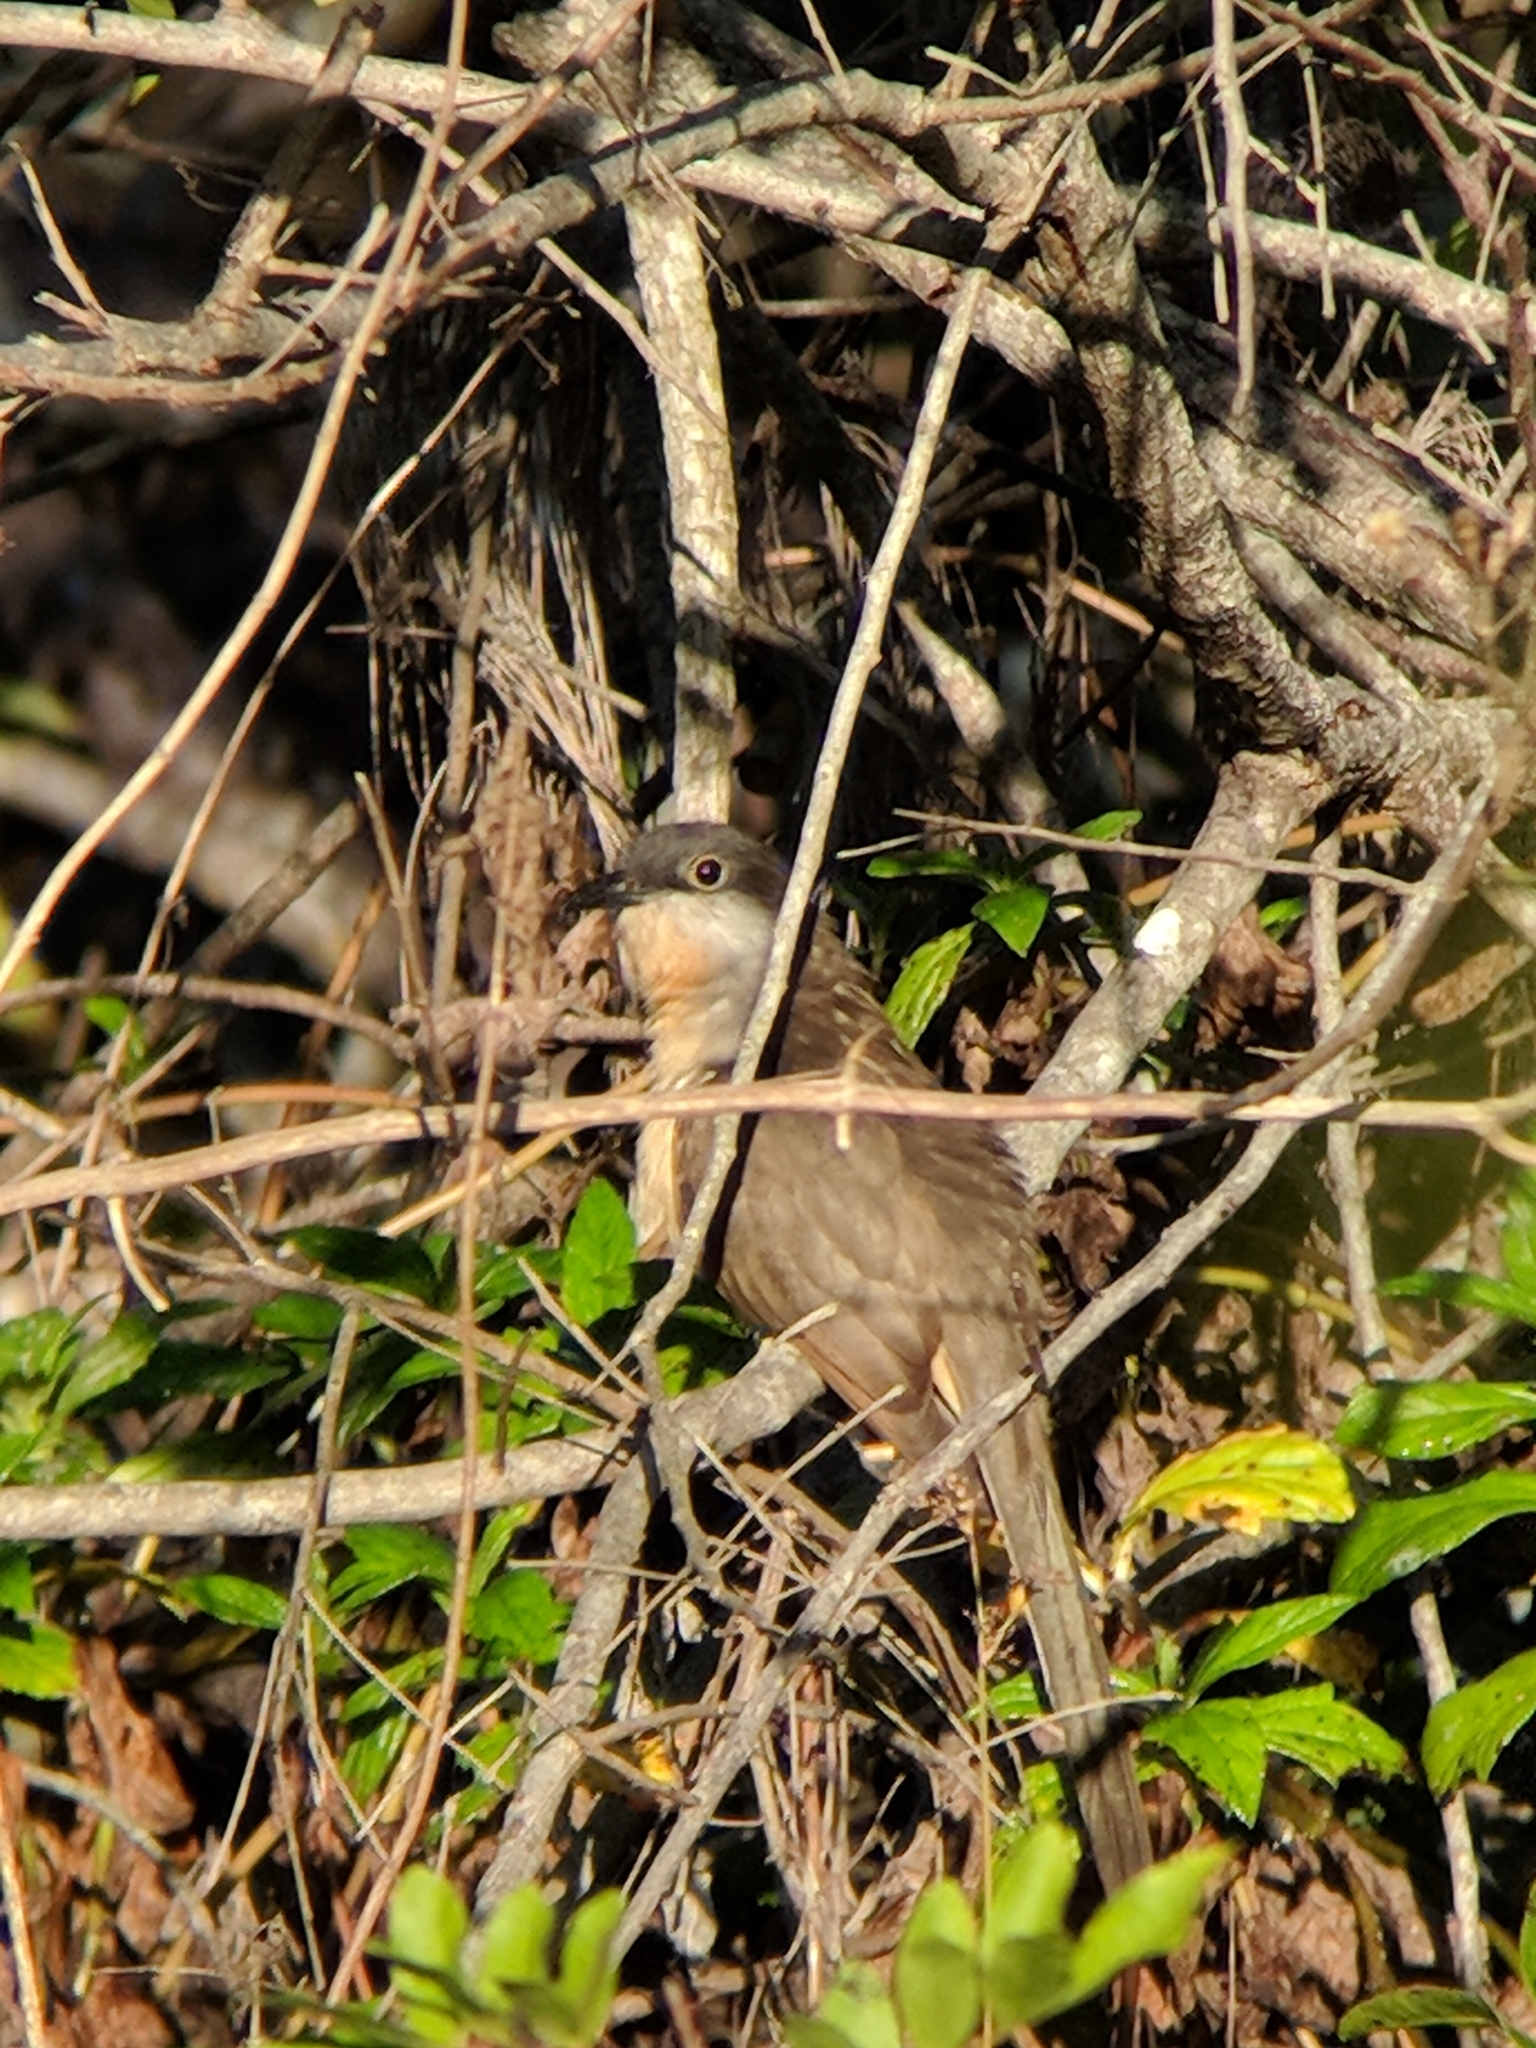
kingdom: Animalia
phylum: Chordata
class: Aves
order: Cuculiformes
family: Cuculidae
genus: Coccyzus
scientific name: Coccyzus melacoryphus
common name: Dark-billed cuckoo
